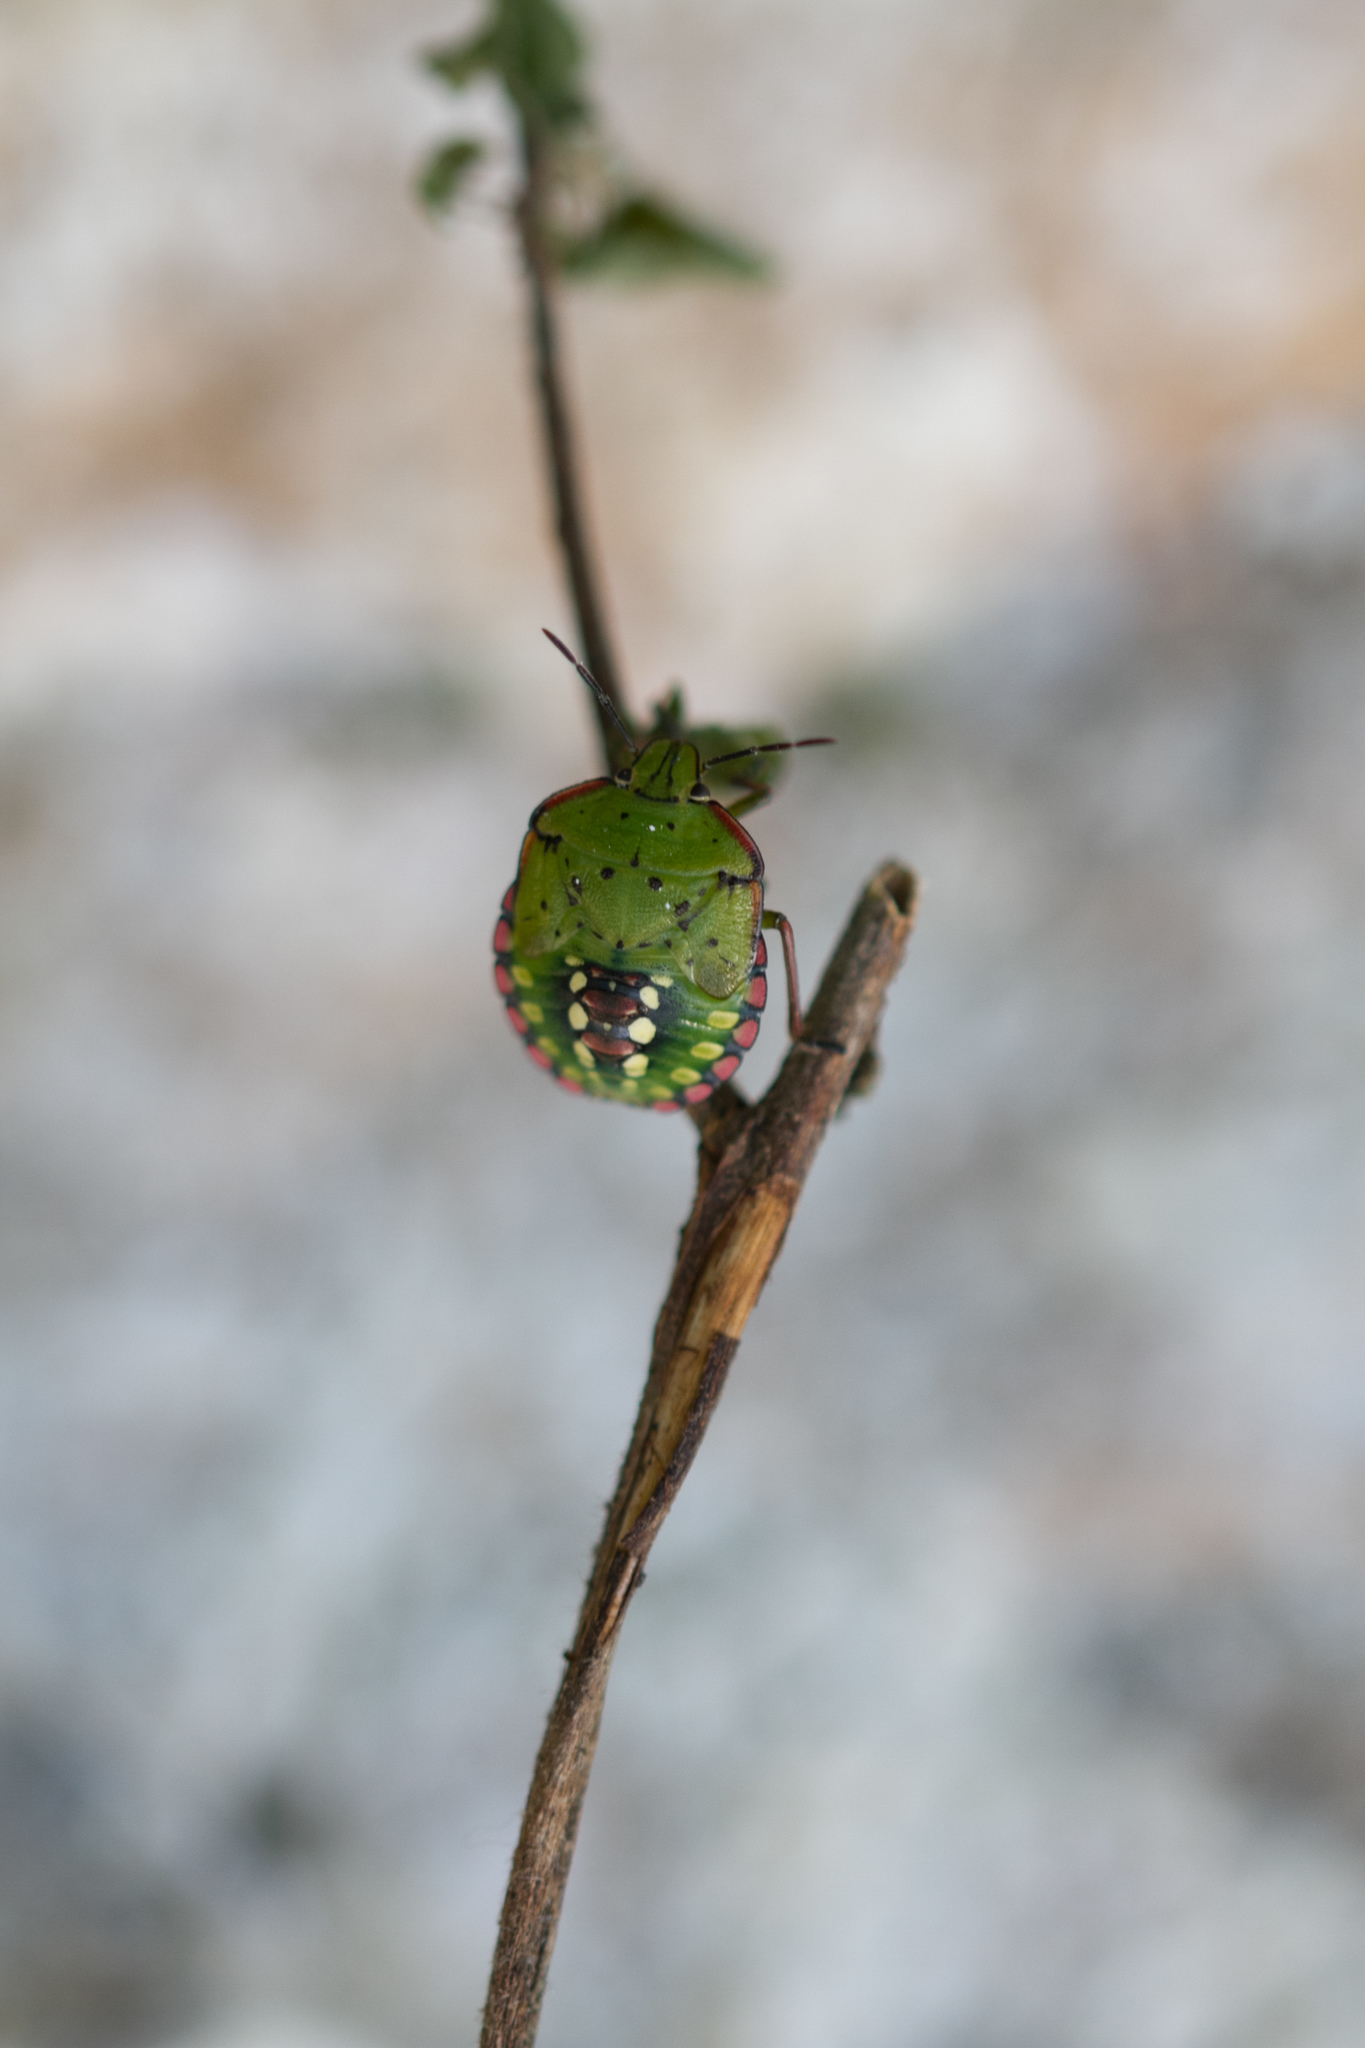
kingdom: Animalia
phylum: Arthropoda
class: Insecta
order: Hemiptera
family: Pentatomidae
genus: Nezara
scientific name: Nezara viridula
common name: Southern green stink bug
